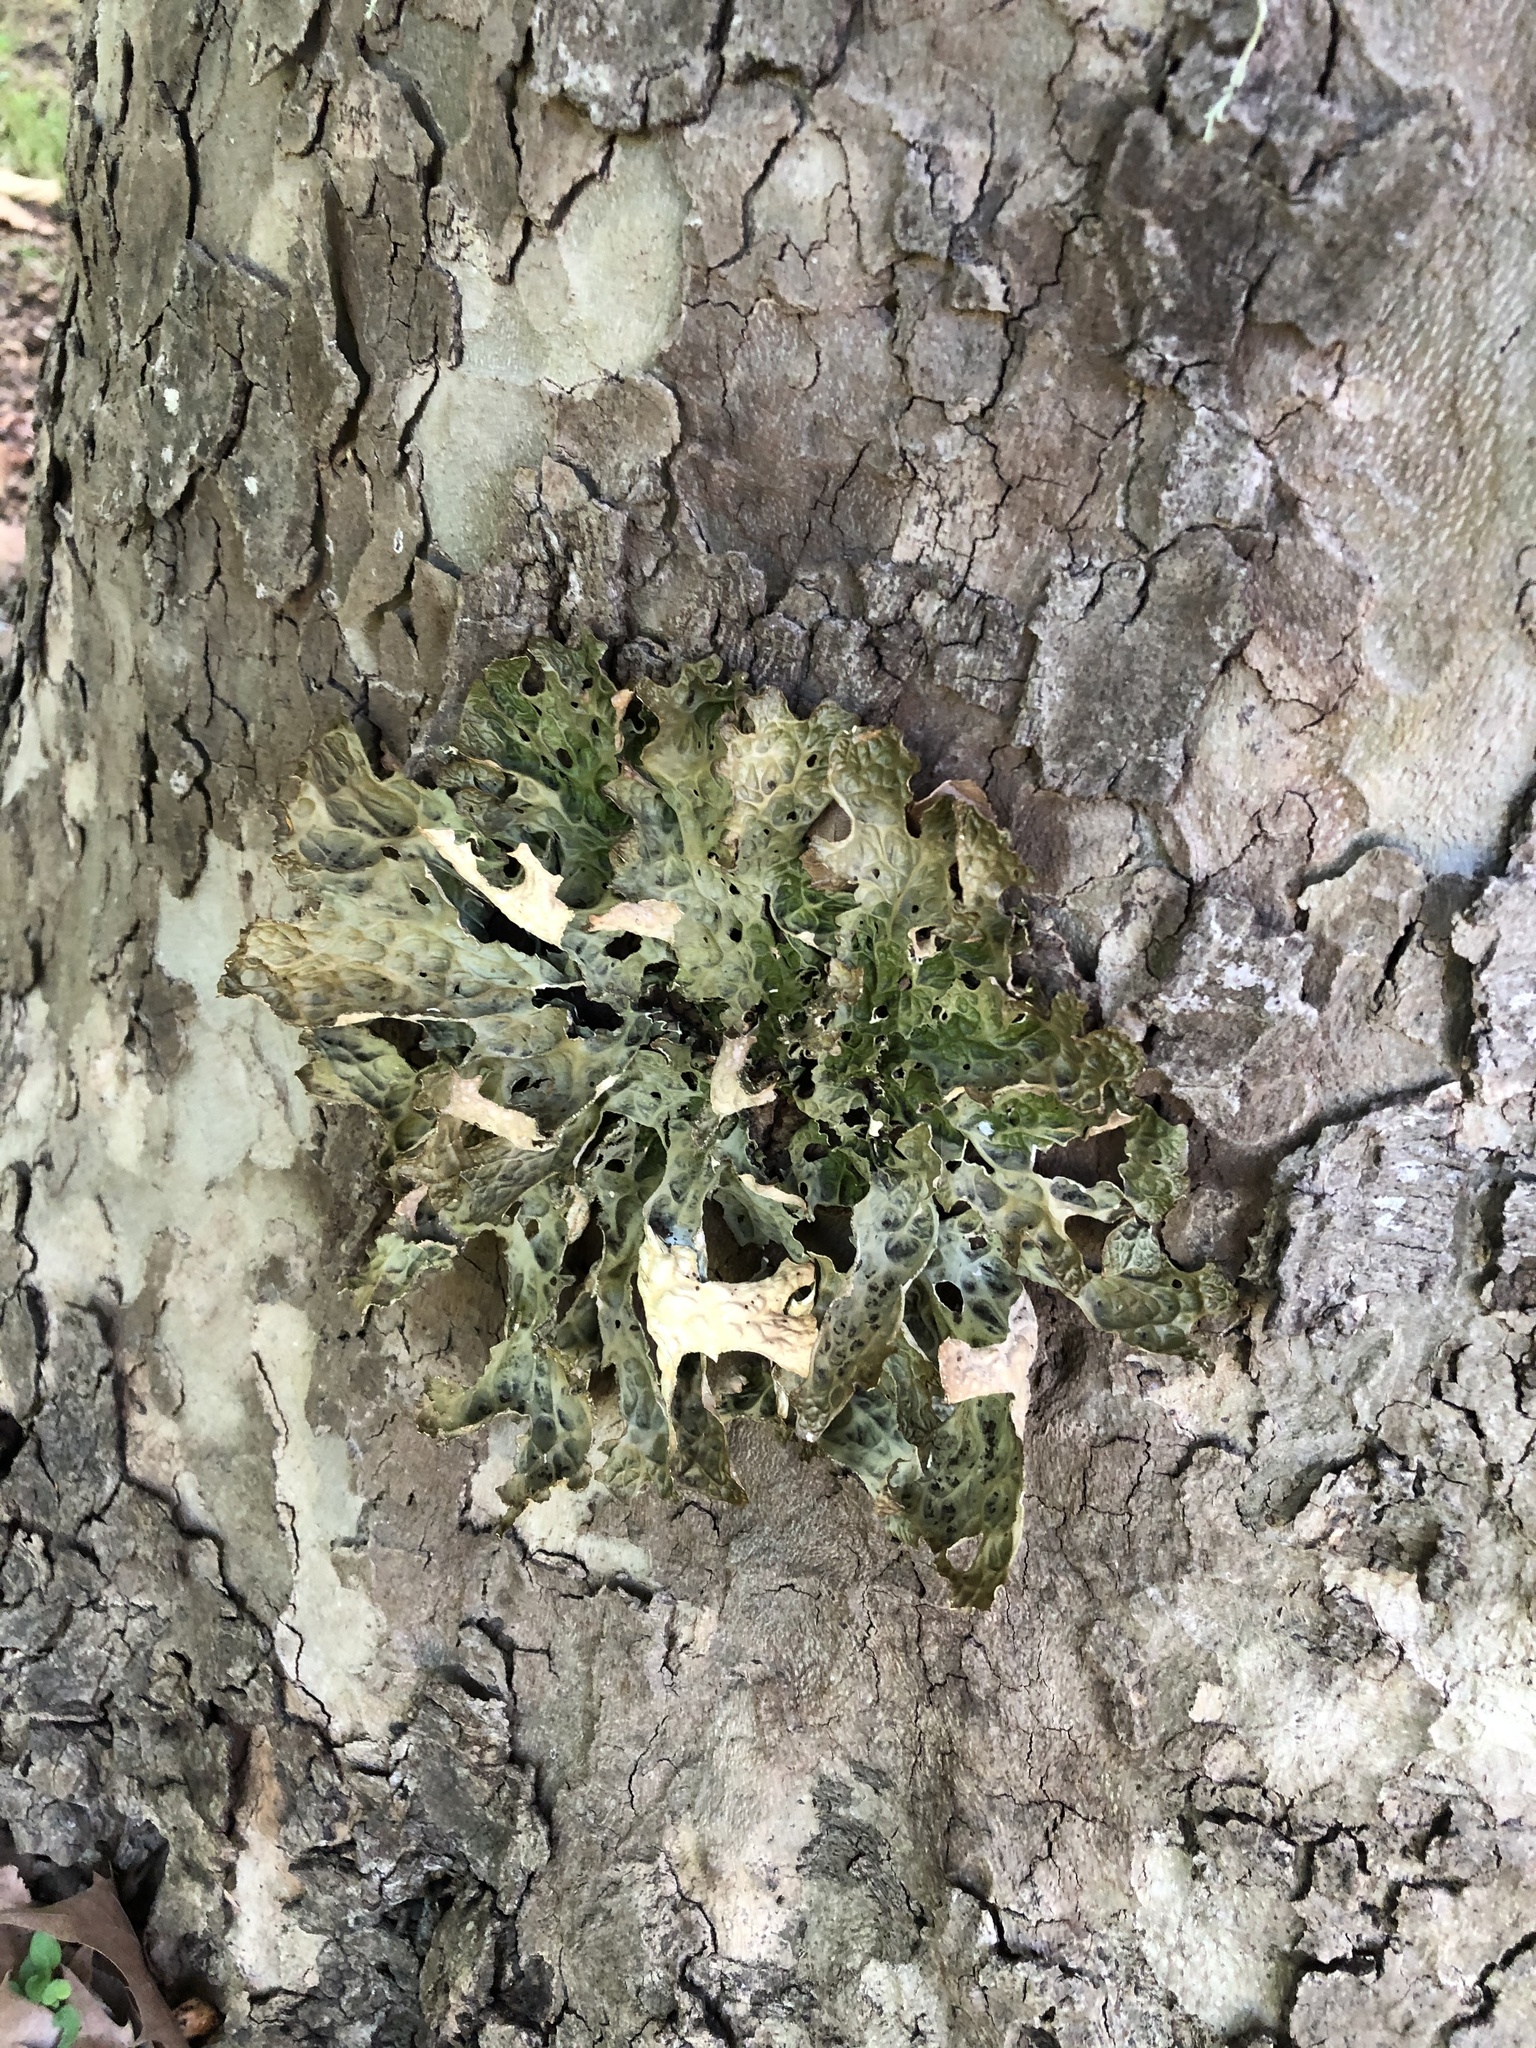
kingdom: Fungi
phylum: Ascomycota
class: Lecanoromycetes
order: Peltigerales
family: Lobariaceae
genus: Lobaria
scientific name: Lobaria pulmonaria
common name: Lungwort
